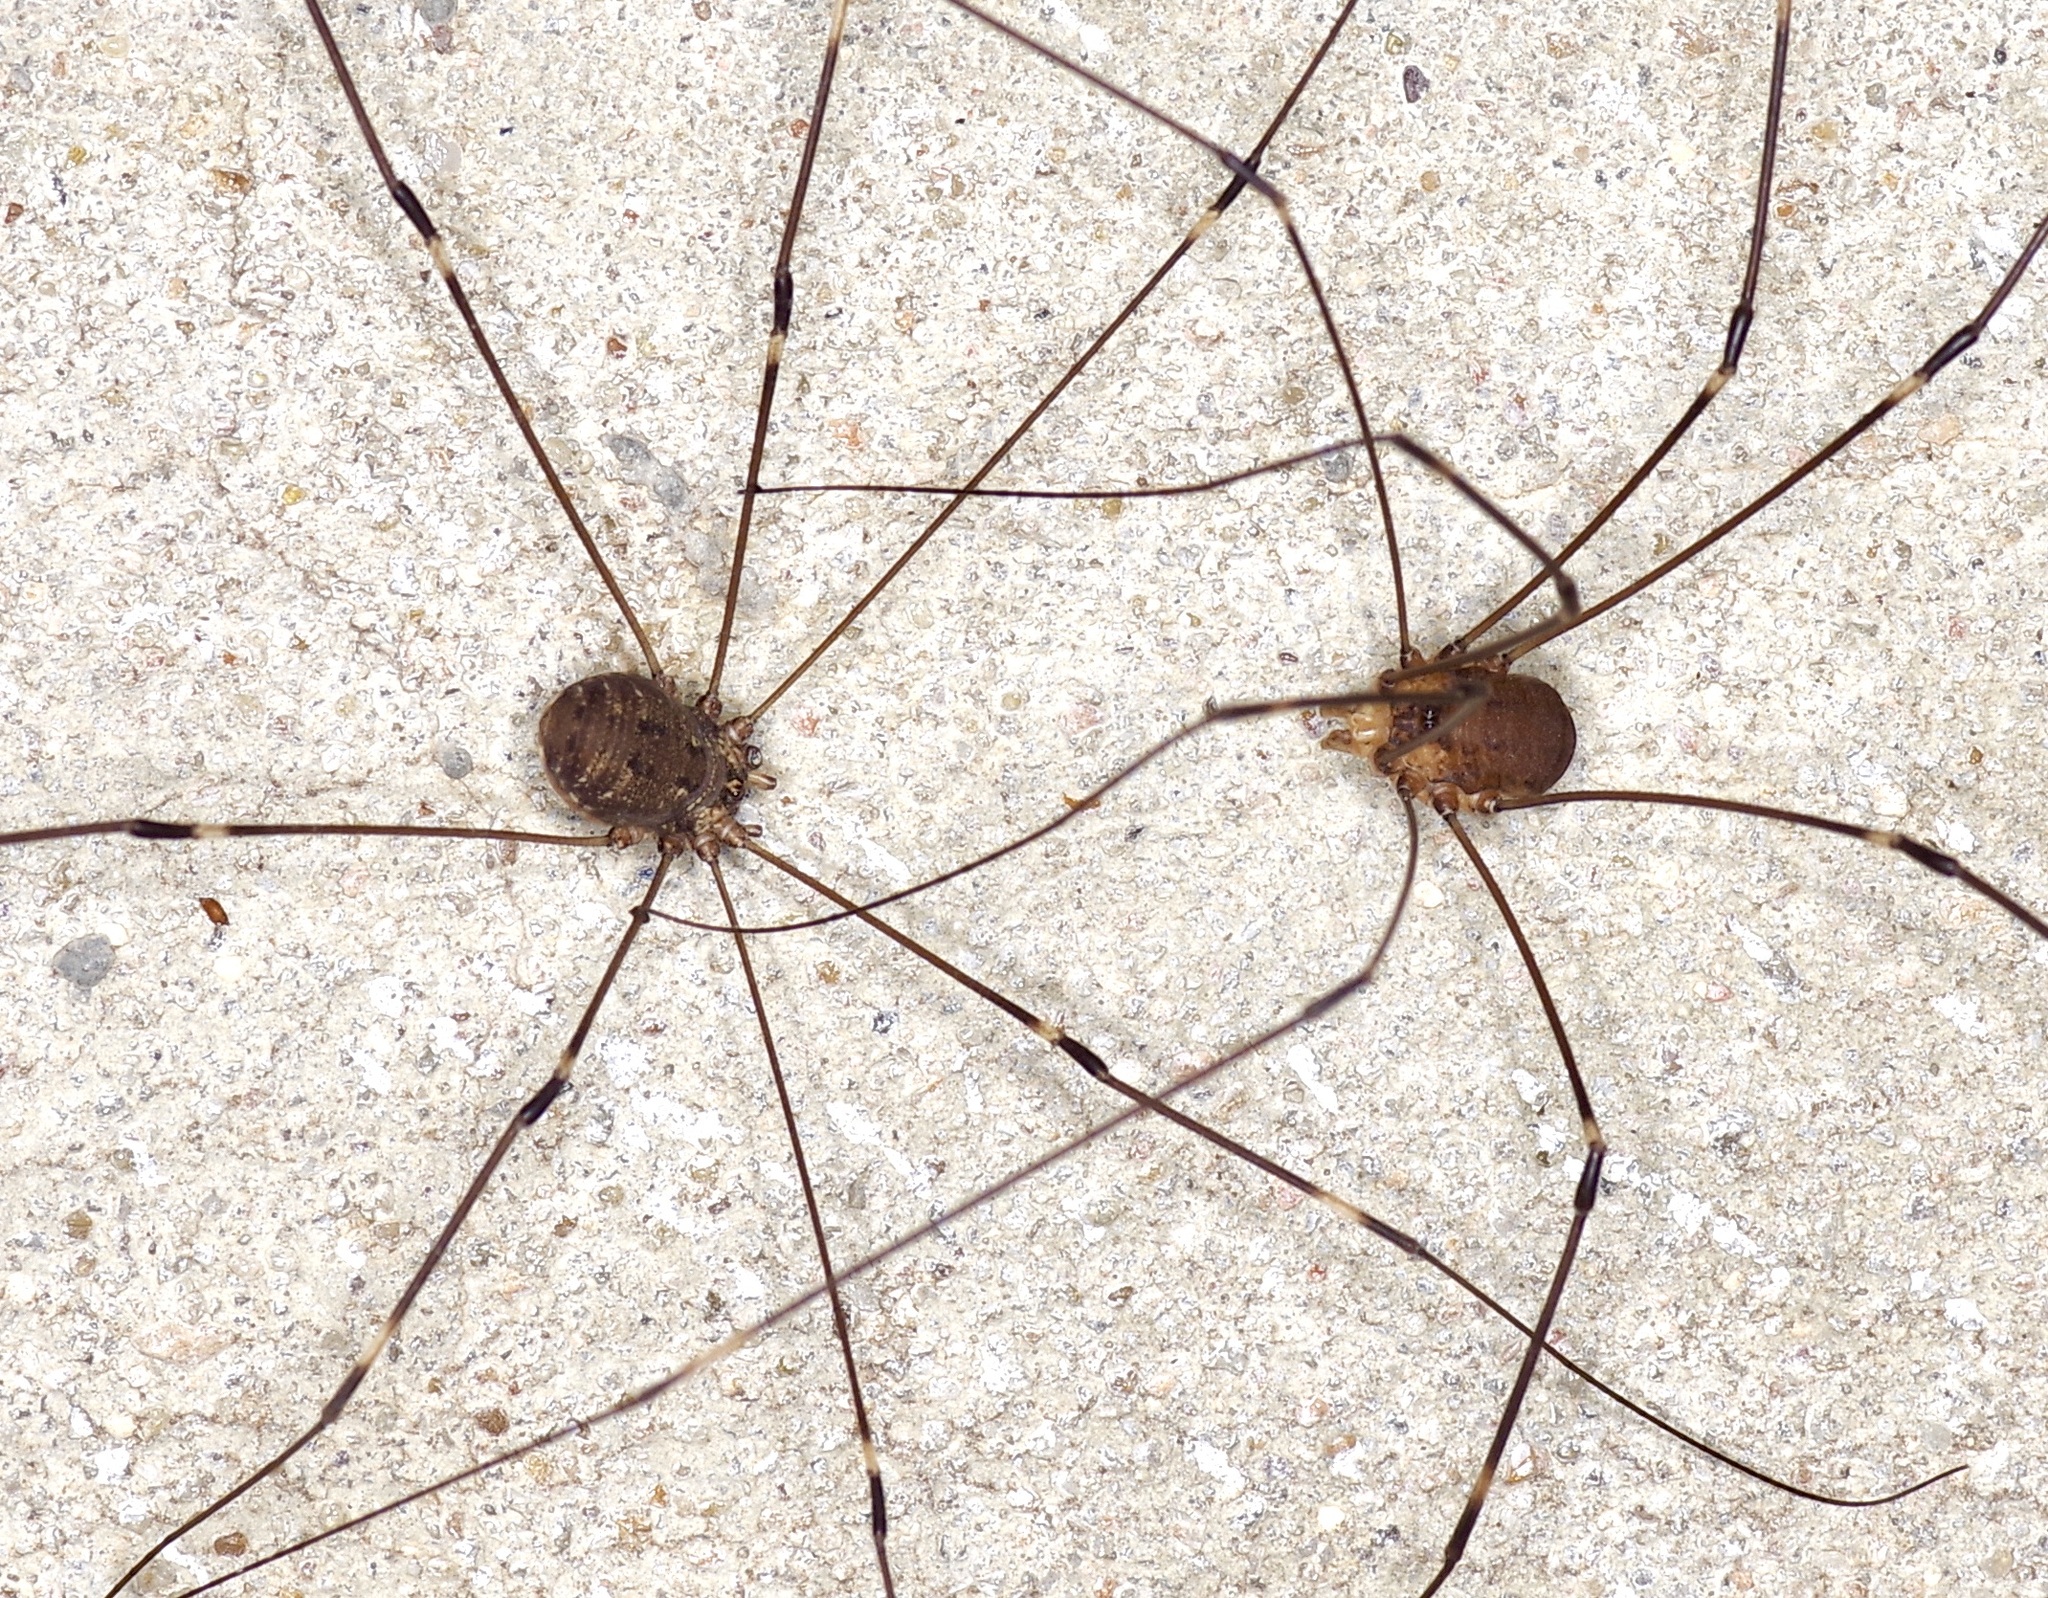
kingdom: Animalia
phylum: Arthropoda
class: Arachnida
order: Opiliones
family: Sclerosomatidae
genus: Leiobunum
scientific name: Leiobunum townsendi
